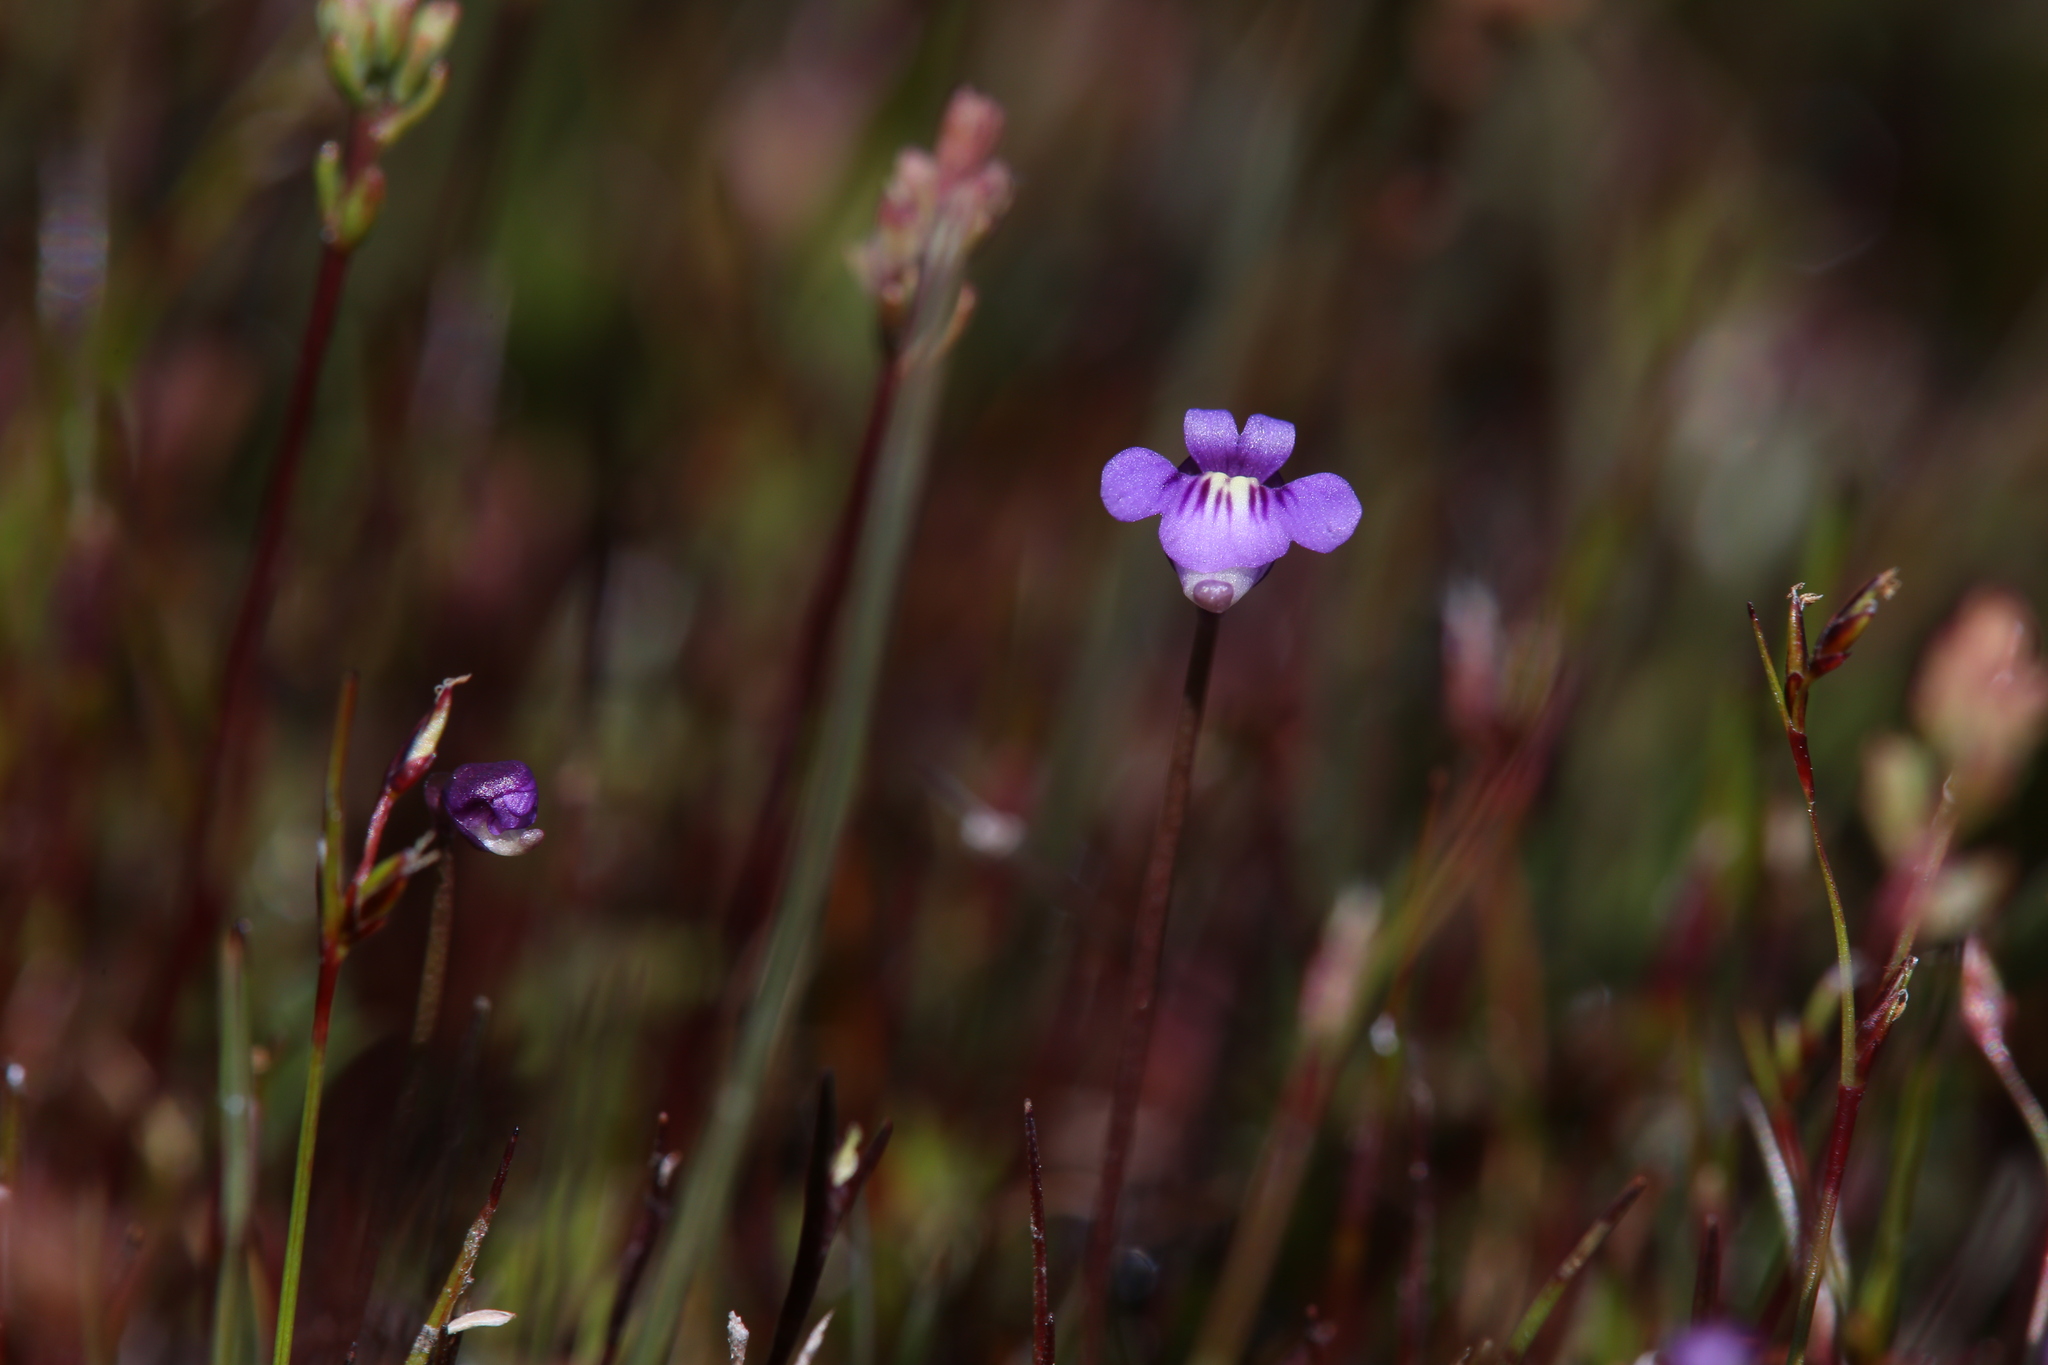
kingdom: Plantae
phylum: Tracheophyta
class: Magnoliopsida
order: Lamiales
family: Lentibulariaceae
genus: Utricularia
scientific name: Utricularia violacea
